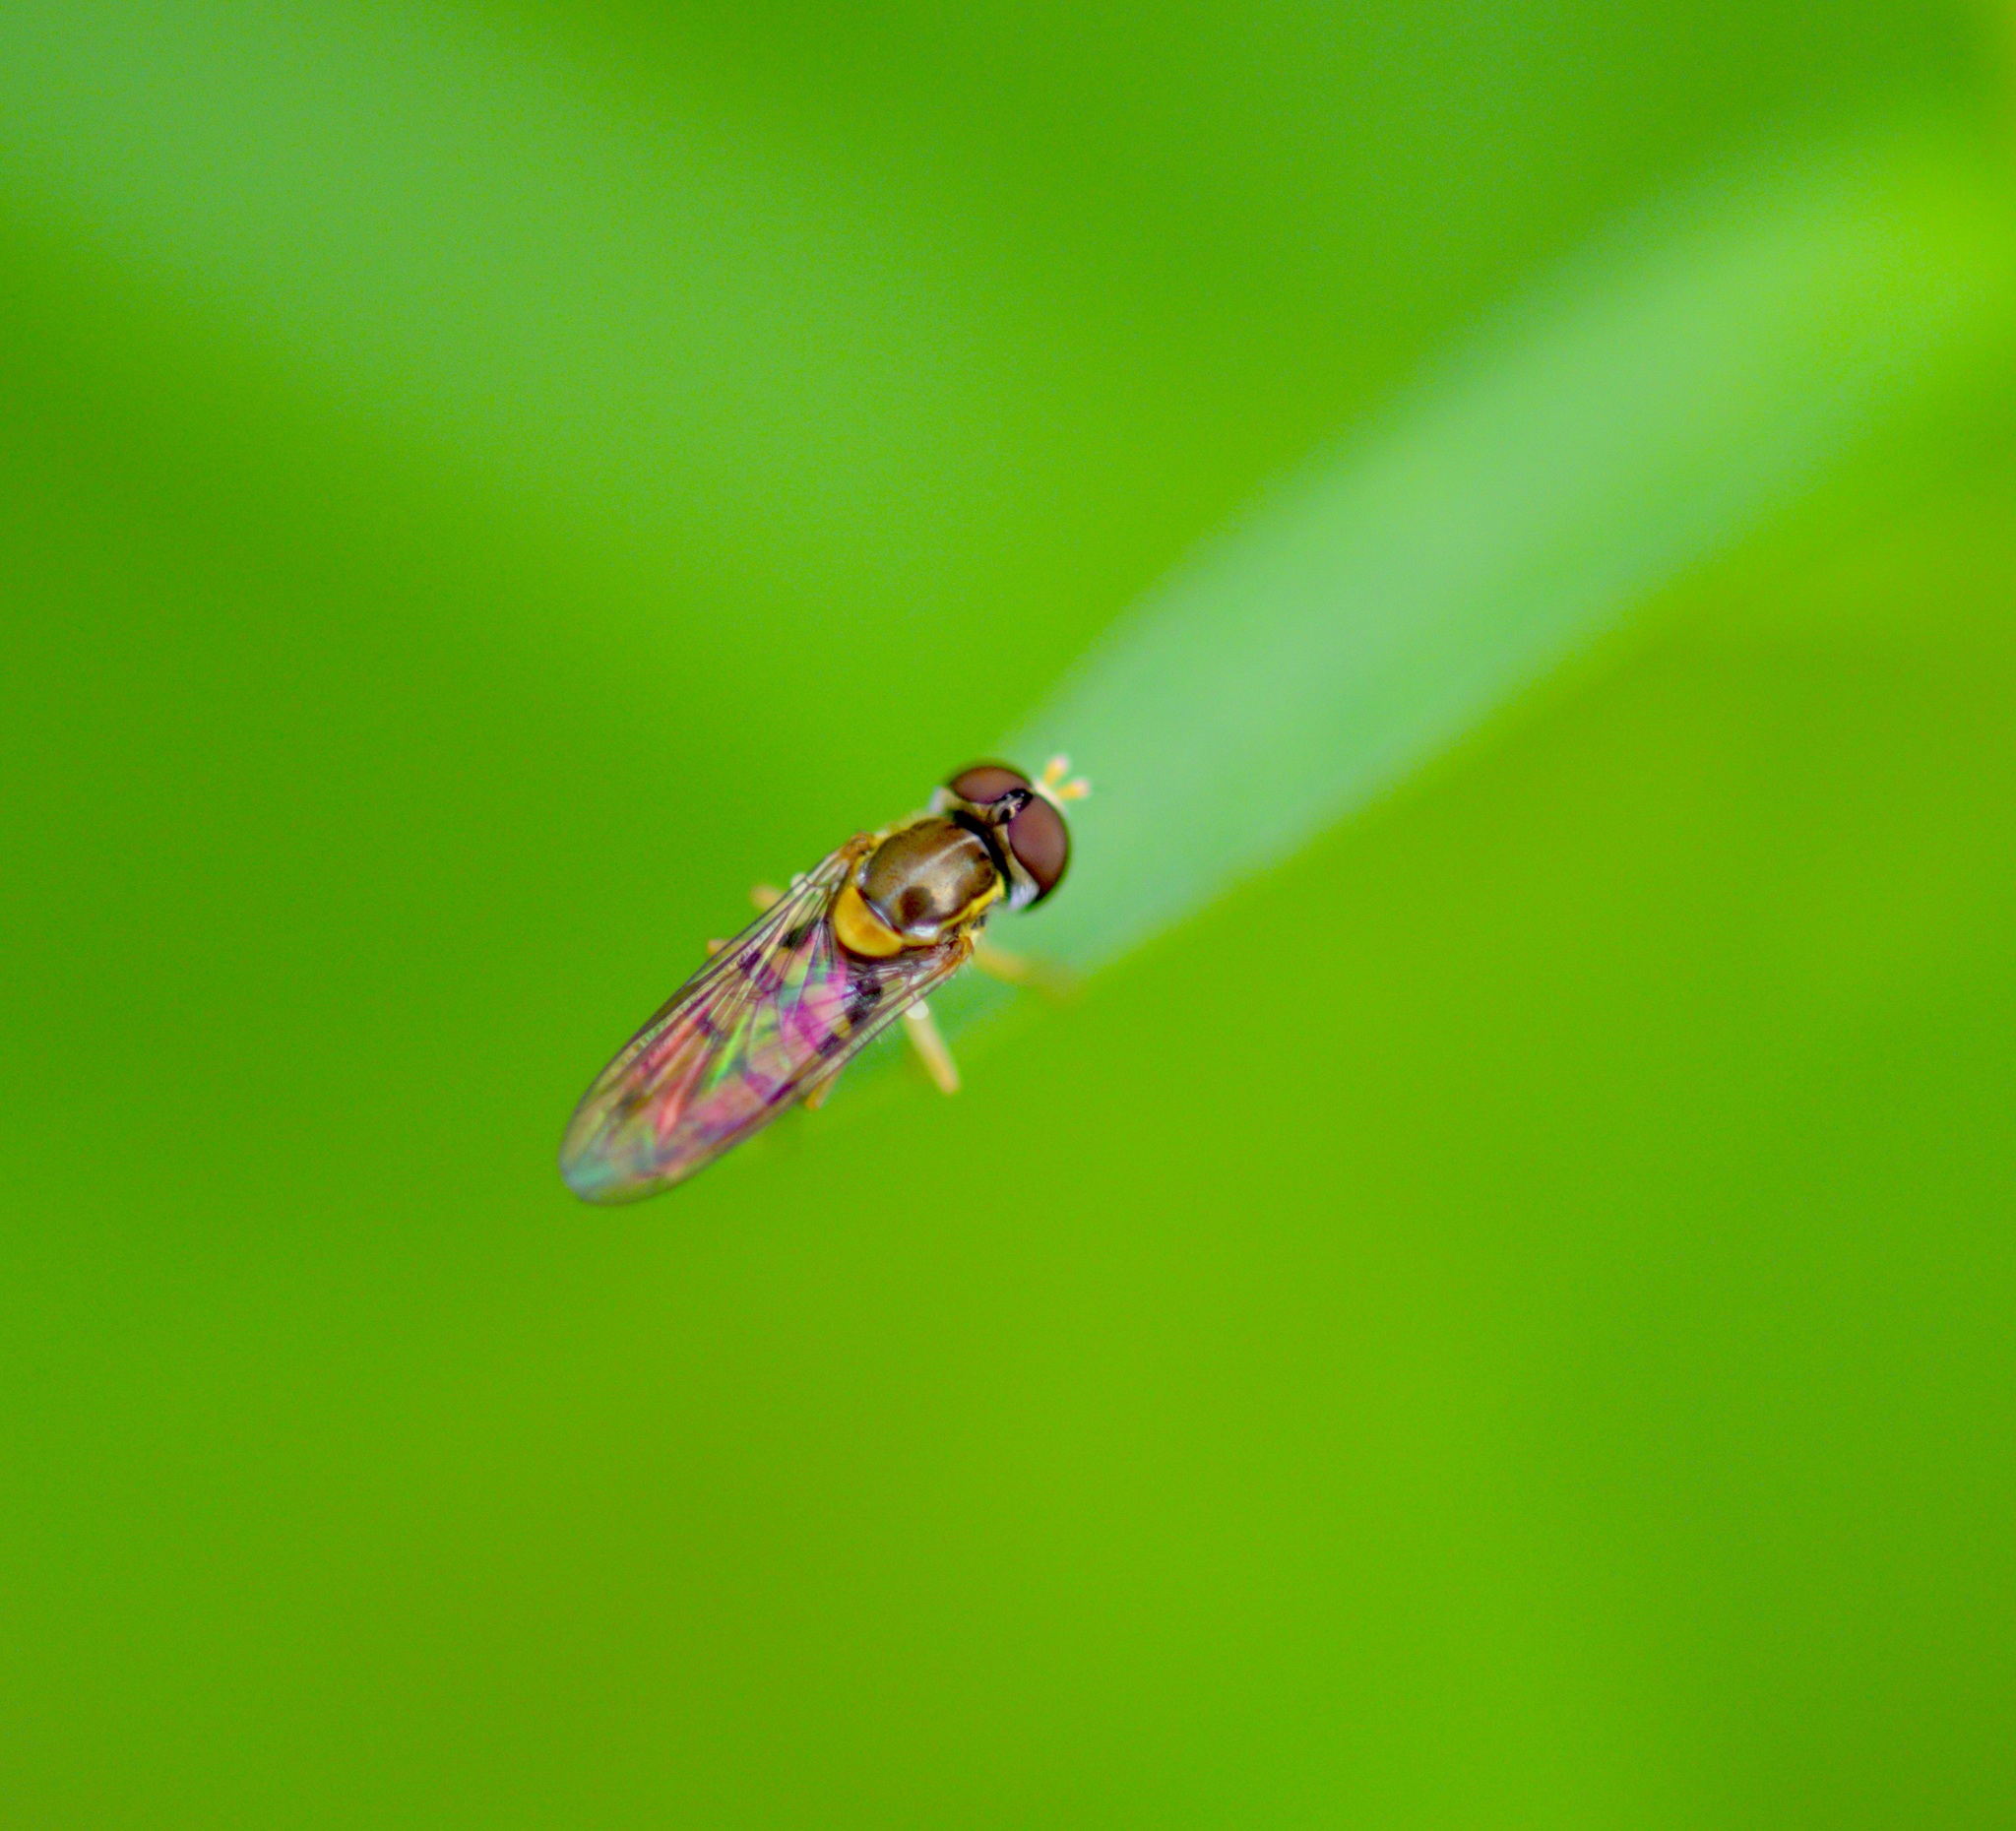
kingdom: Animalia
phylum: Arthropoda
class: Insecta
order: Diptera
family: Syrphidae
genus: Toxomerus
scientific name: Toxomerus marginatus
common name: Syrphid fly
